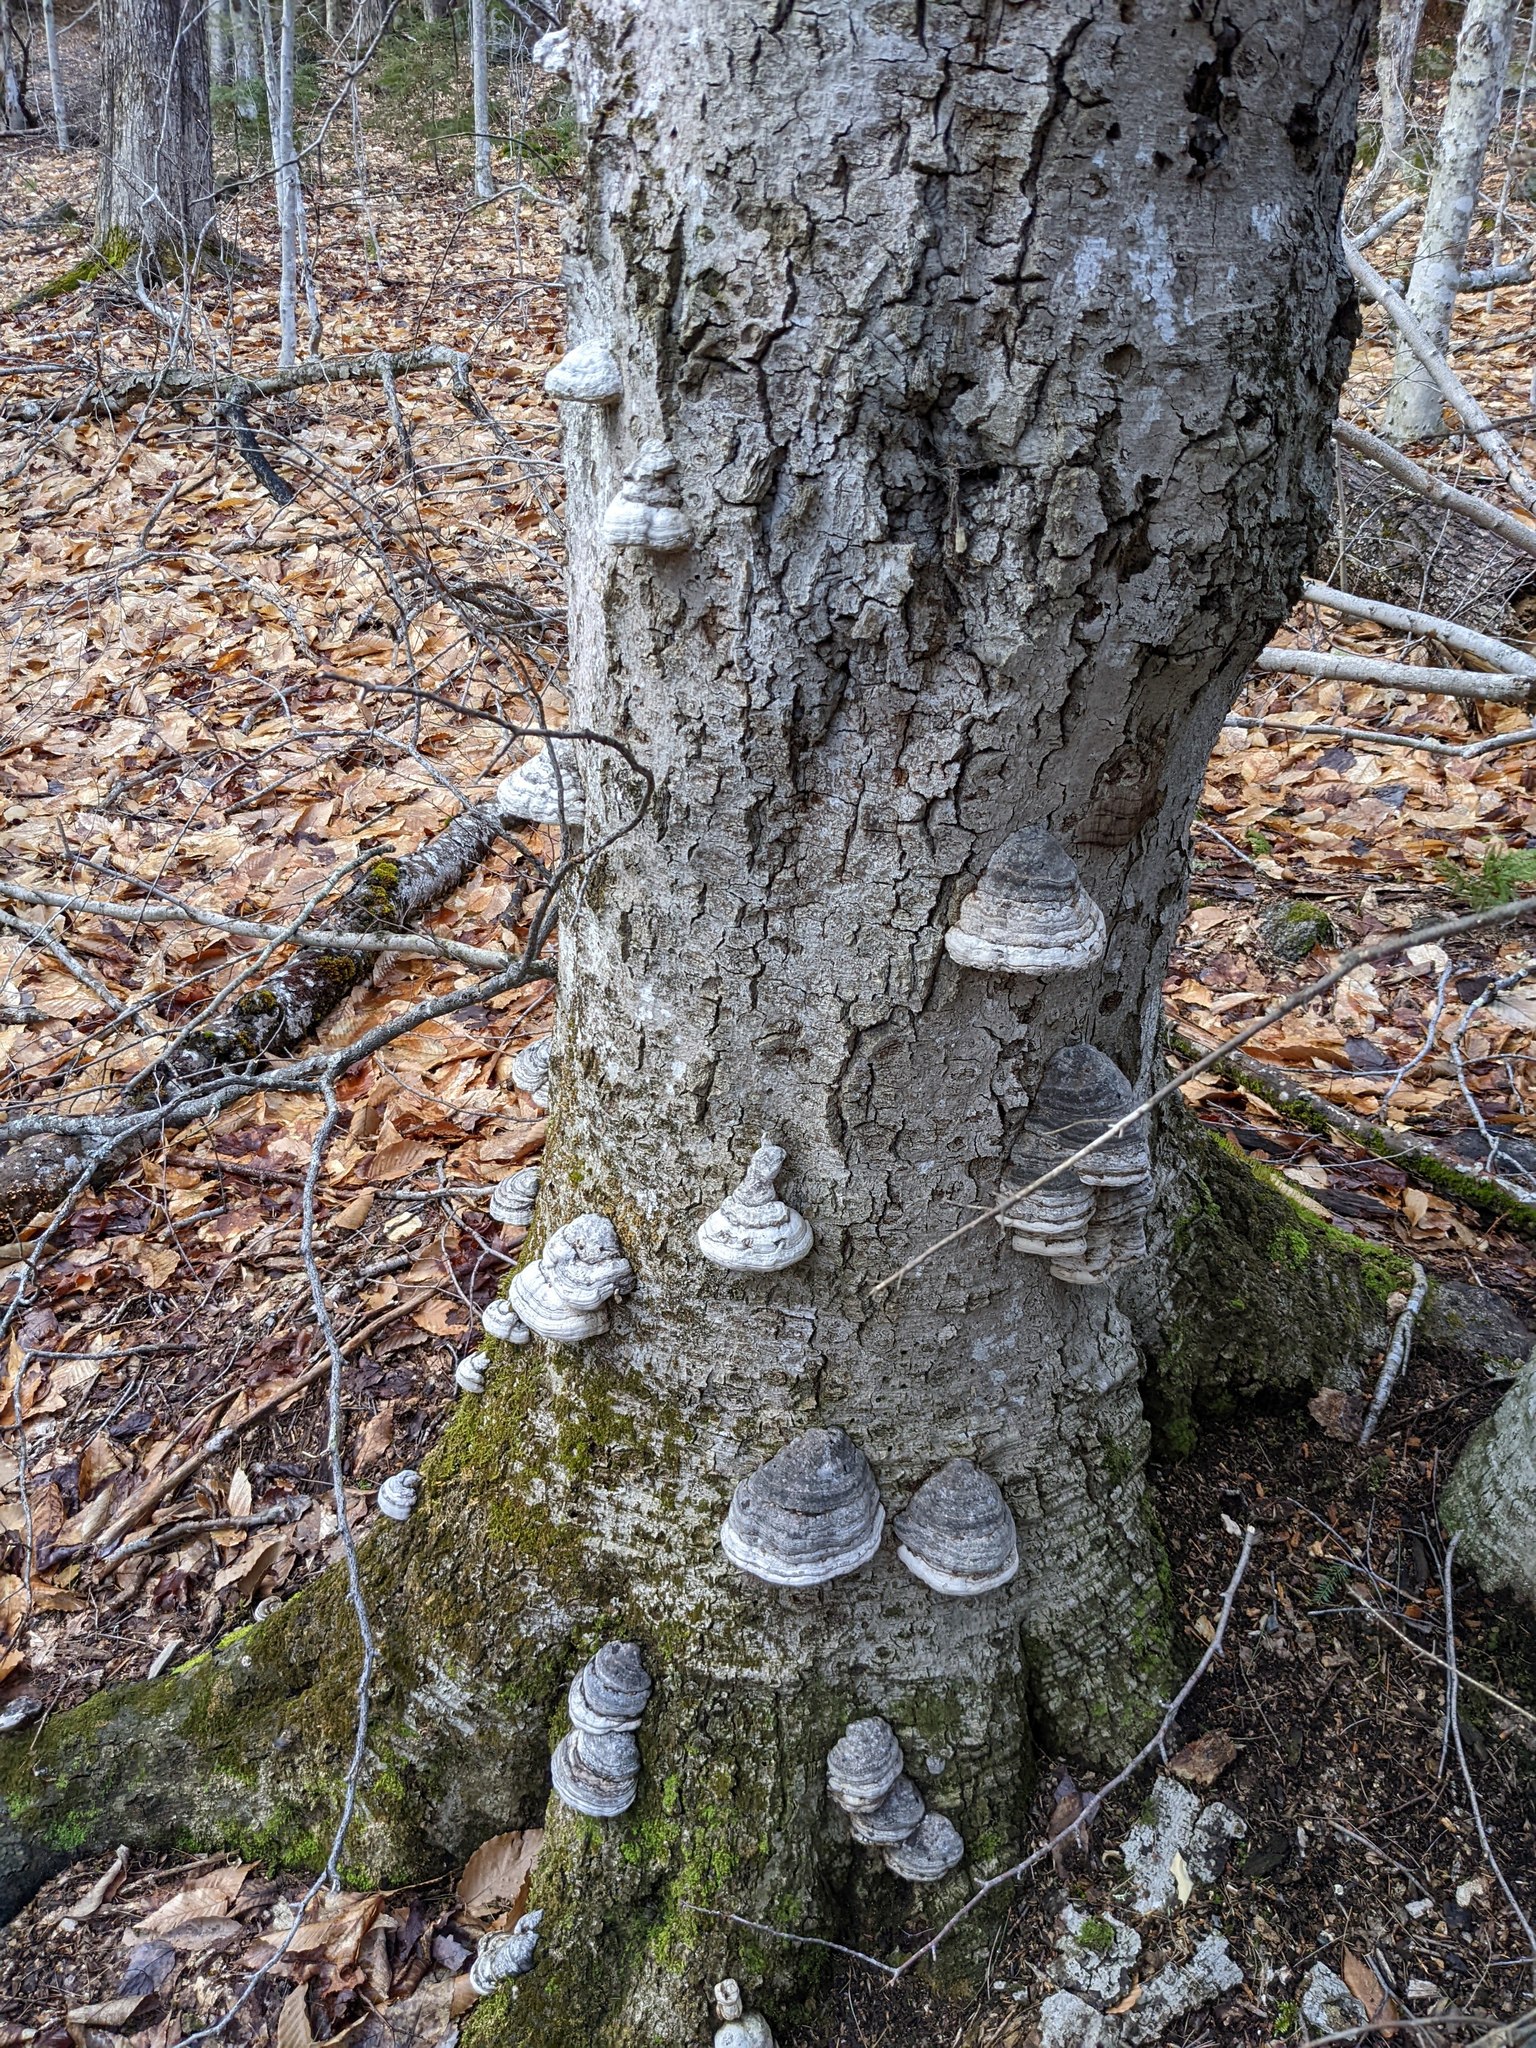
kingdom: Fungi
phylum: Basidiomycota
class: Agaricomycetes
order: Polyporales
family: Polyporaceae
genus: Fomes
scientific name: Fomes fomentarius
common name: Hoof fungus
